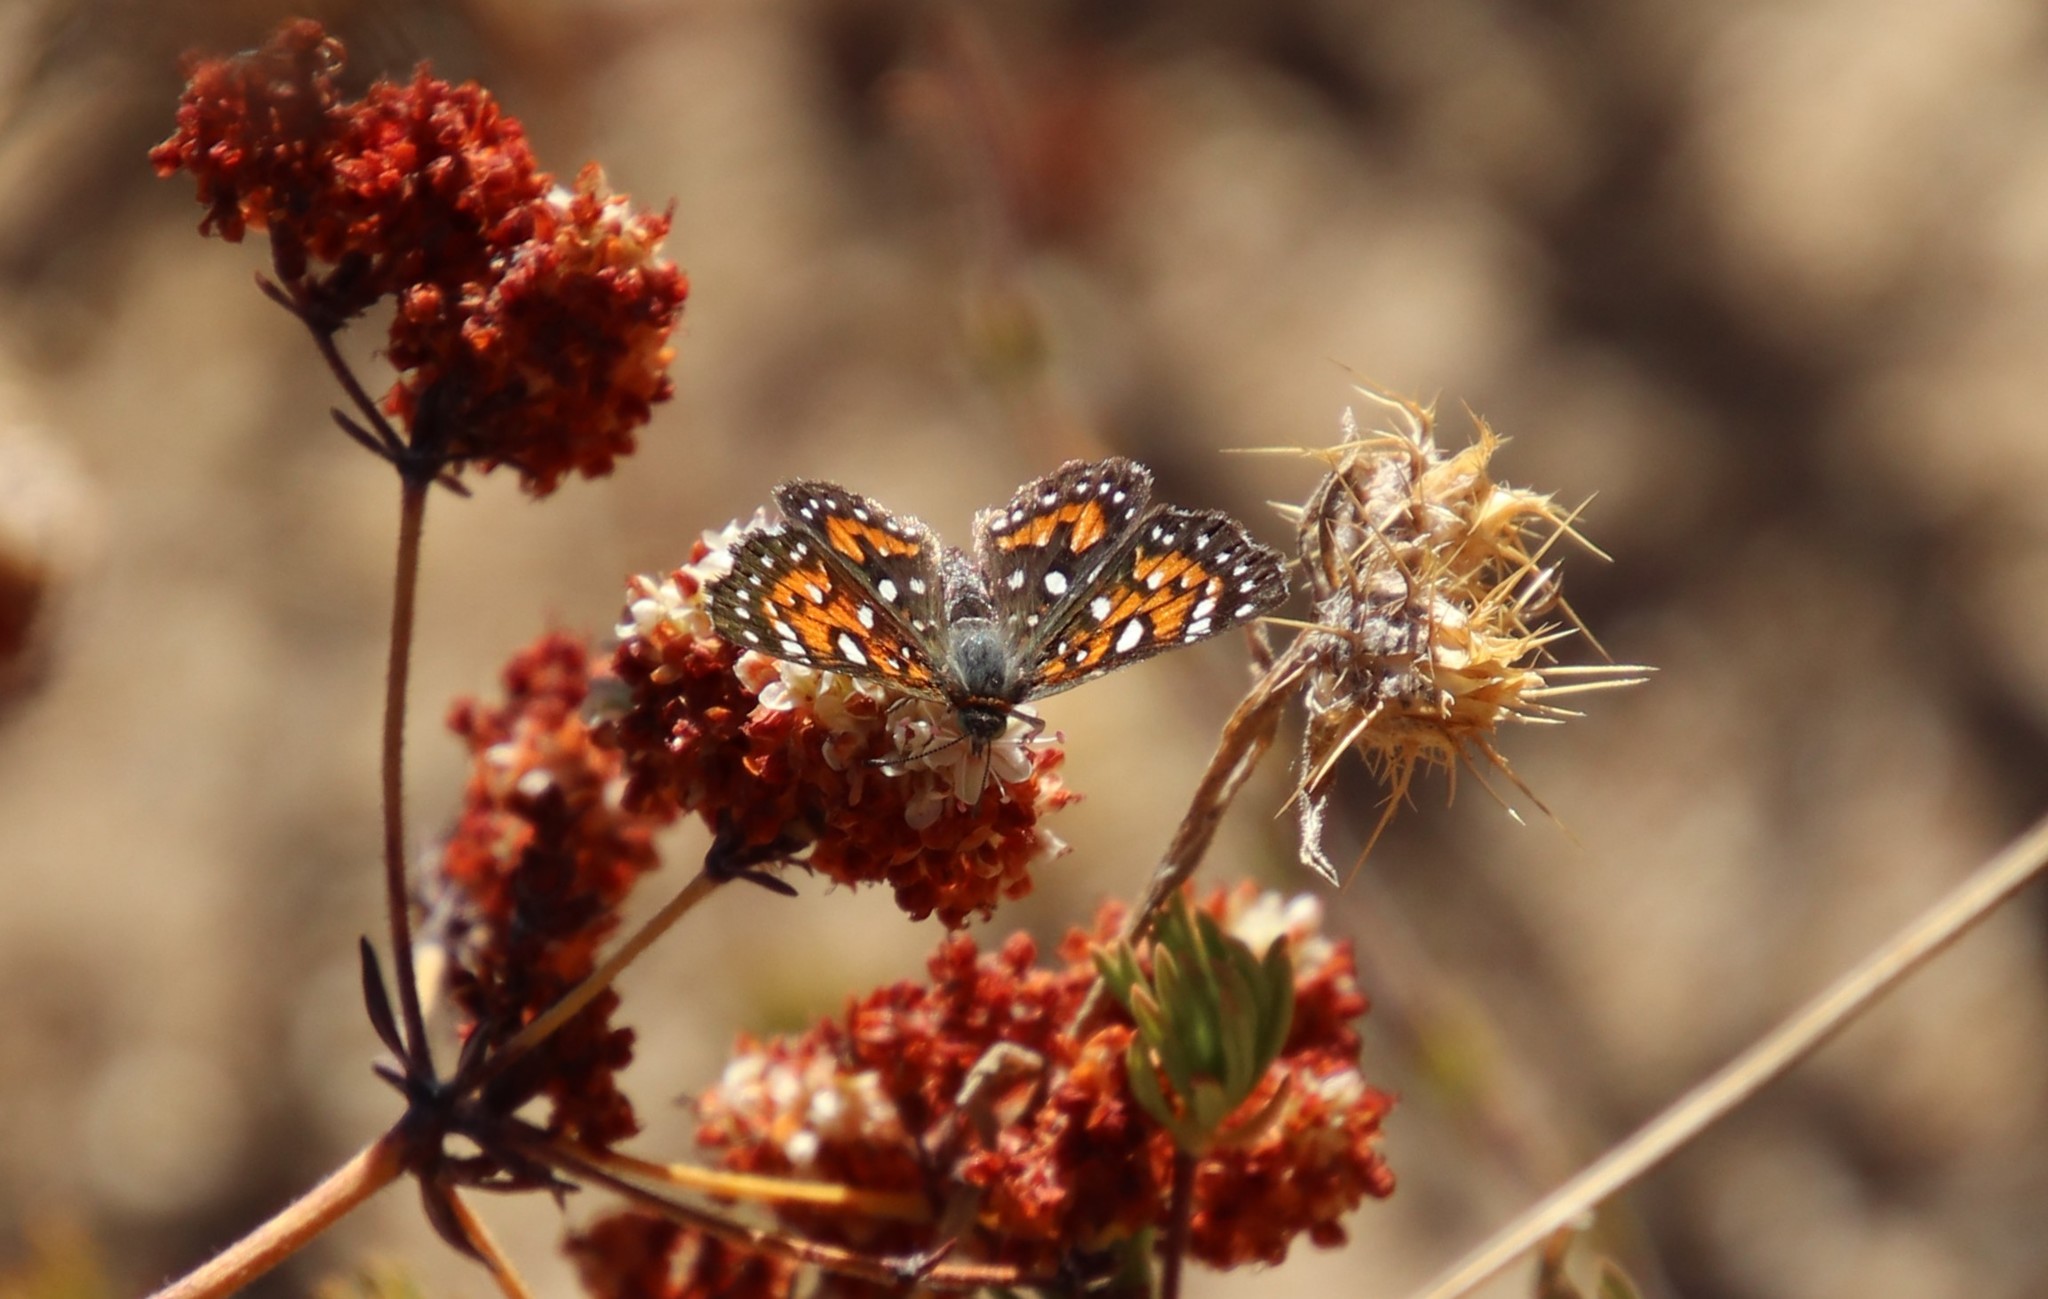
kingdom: Animalia
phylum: Arthropoda
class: Insecta
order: Lepidoptera
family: Riodinidae
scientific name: Riodinidae
